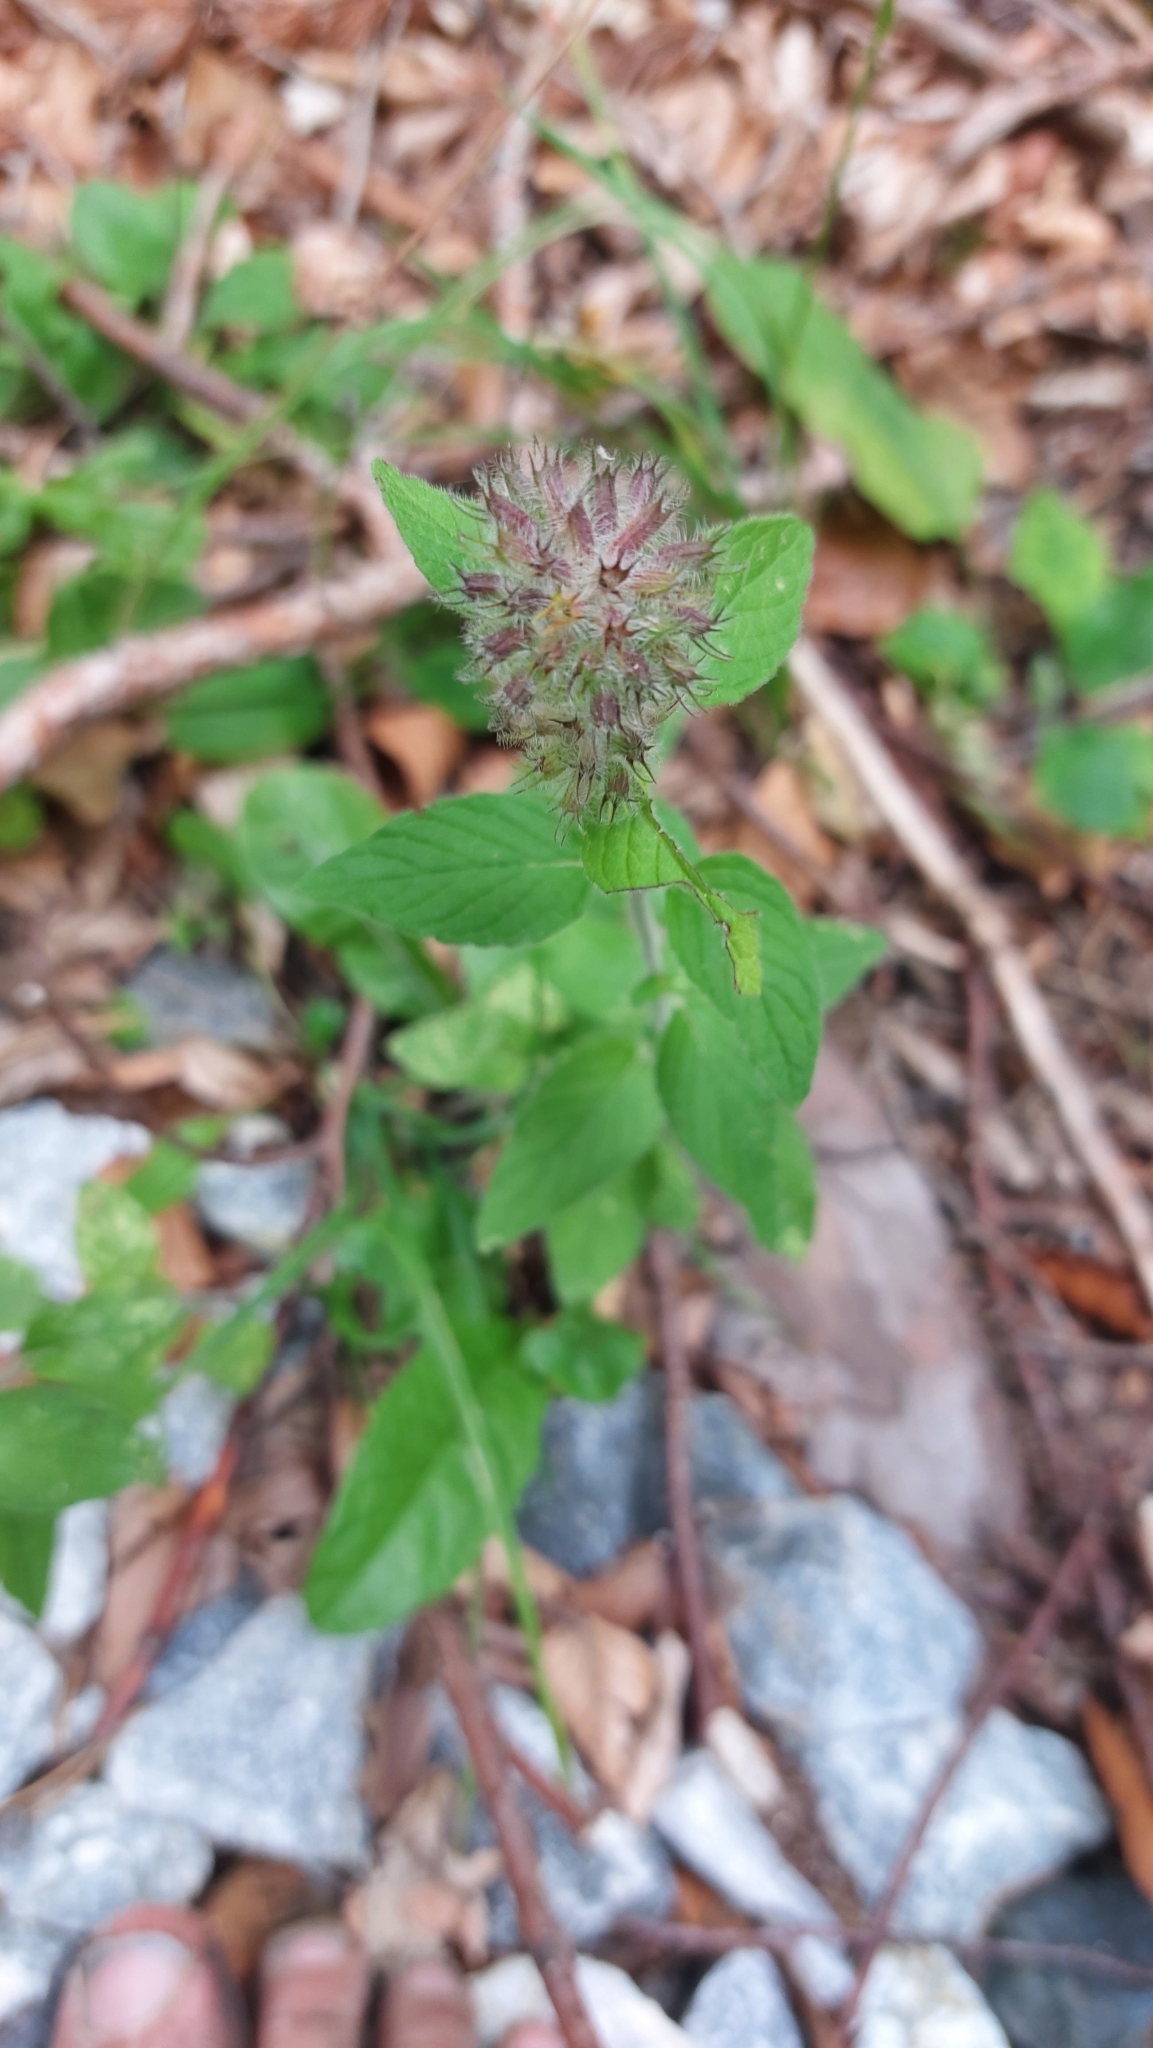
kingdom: Plantae
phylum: Tracheophyta
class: Magnoliopsida
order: Lamiales
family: Lamiaceae
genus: Clinopodium
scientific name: Clinopodium vulgare
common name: Wild basil
